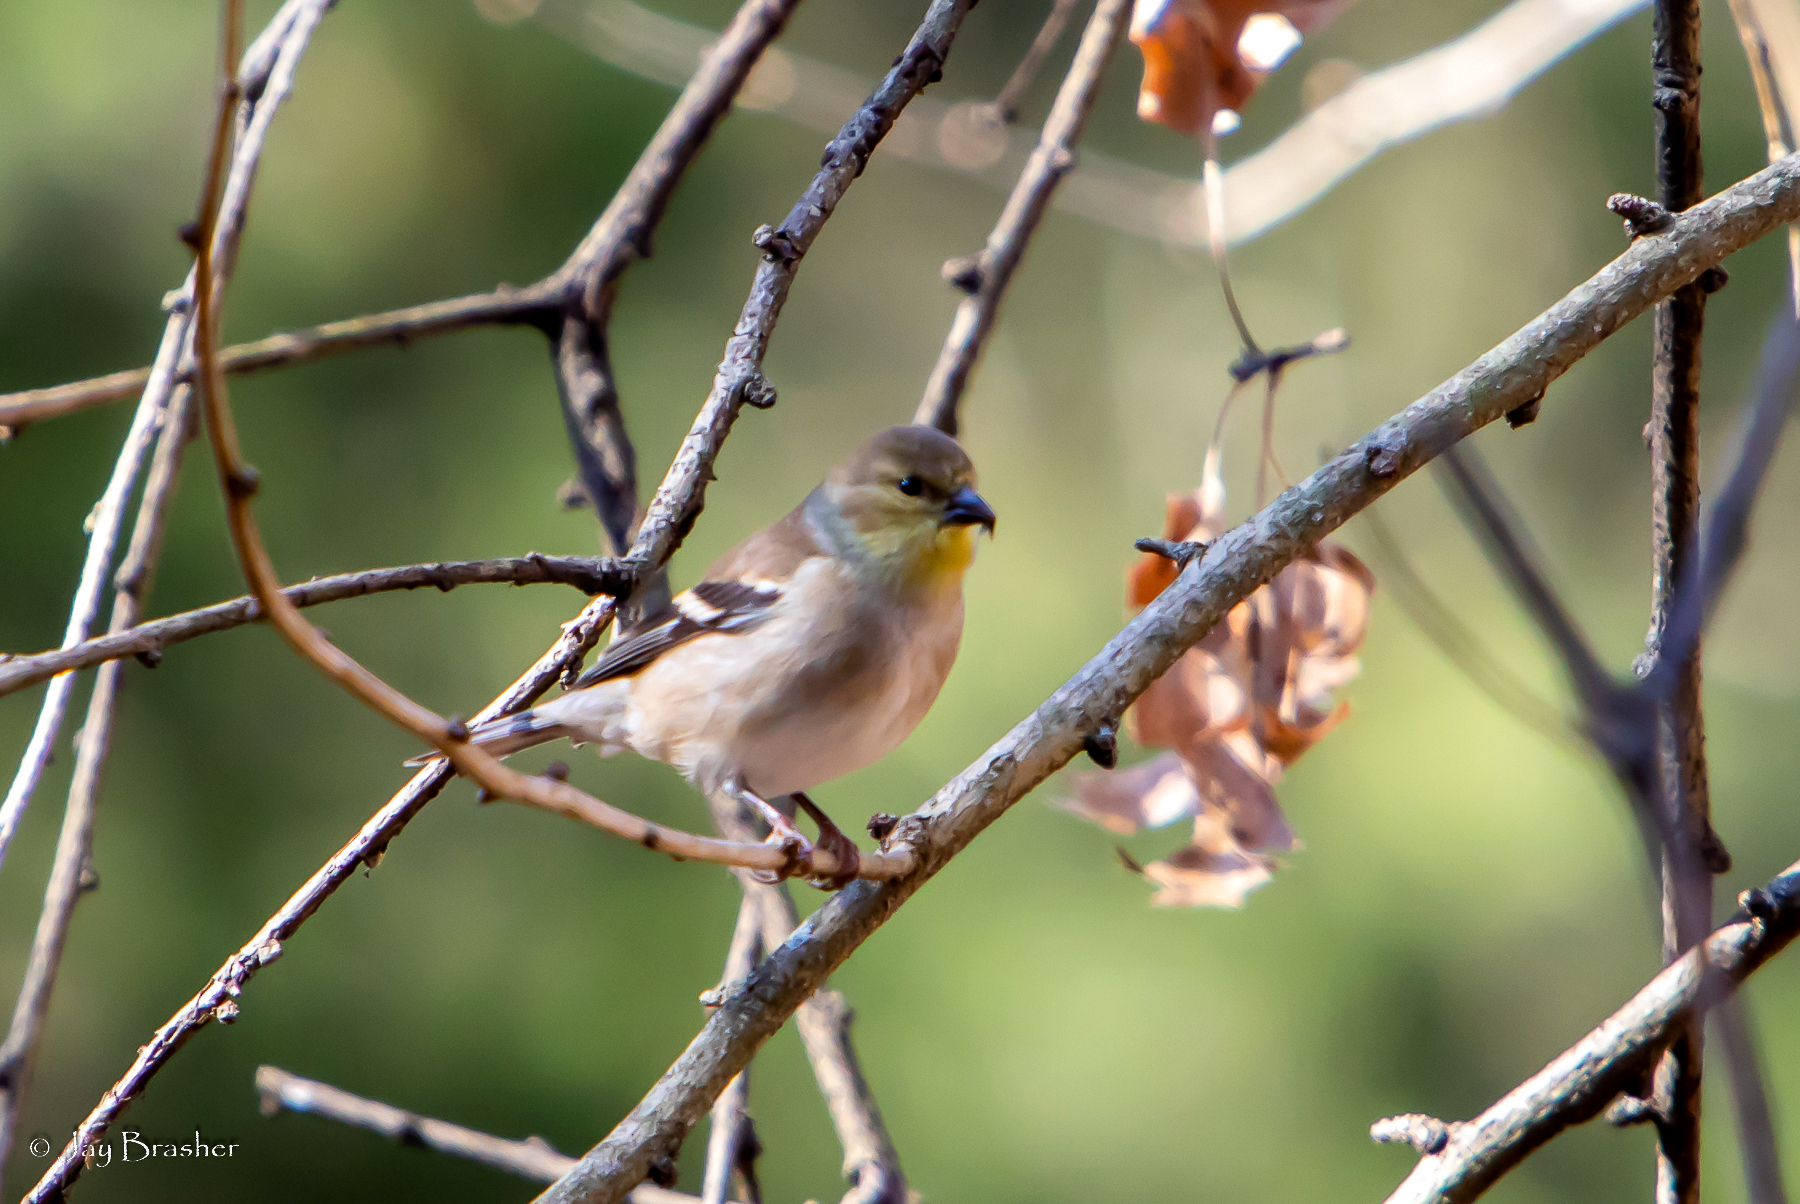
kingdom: Animalia
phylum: Chordata
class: Aves
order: Passeriformes
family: Fringillidae
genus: Spinus
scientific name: Spinus tristis
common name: American goldfinch
